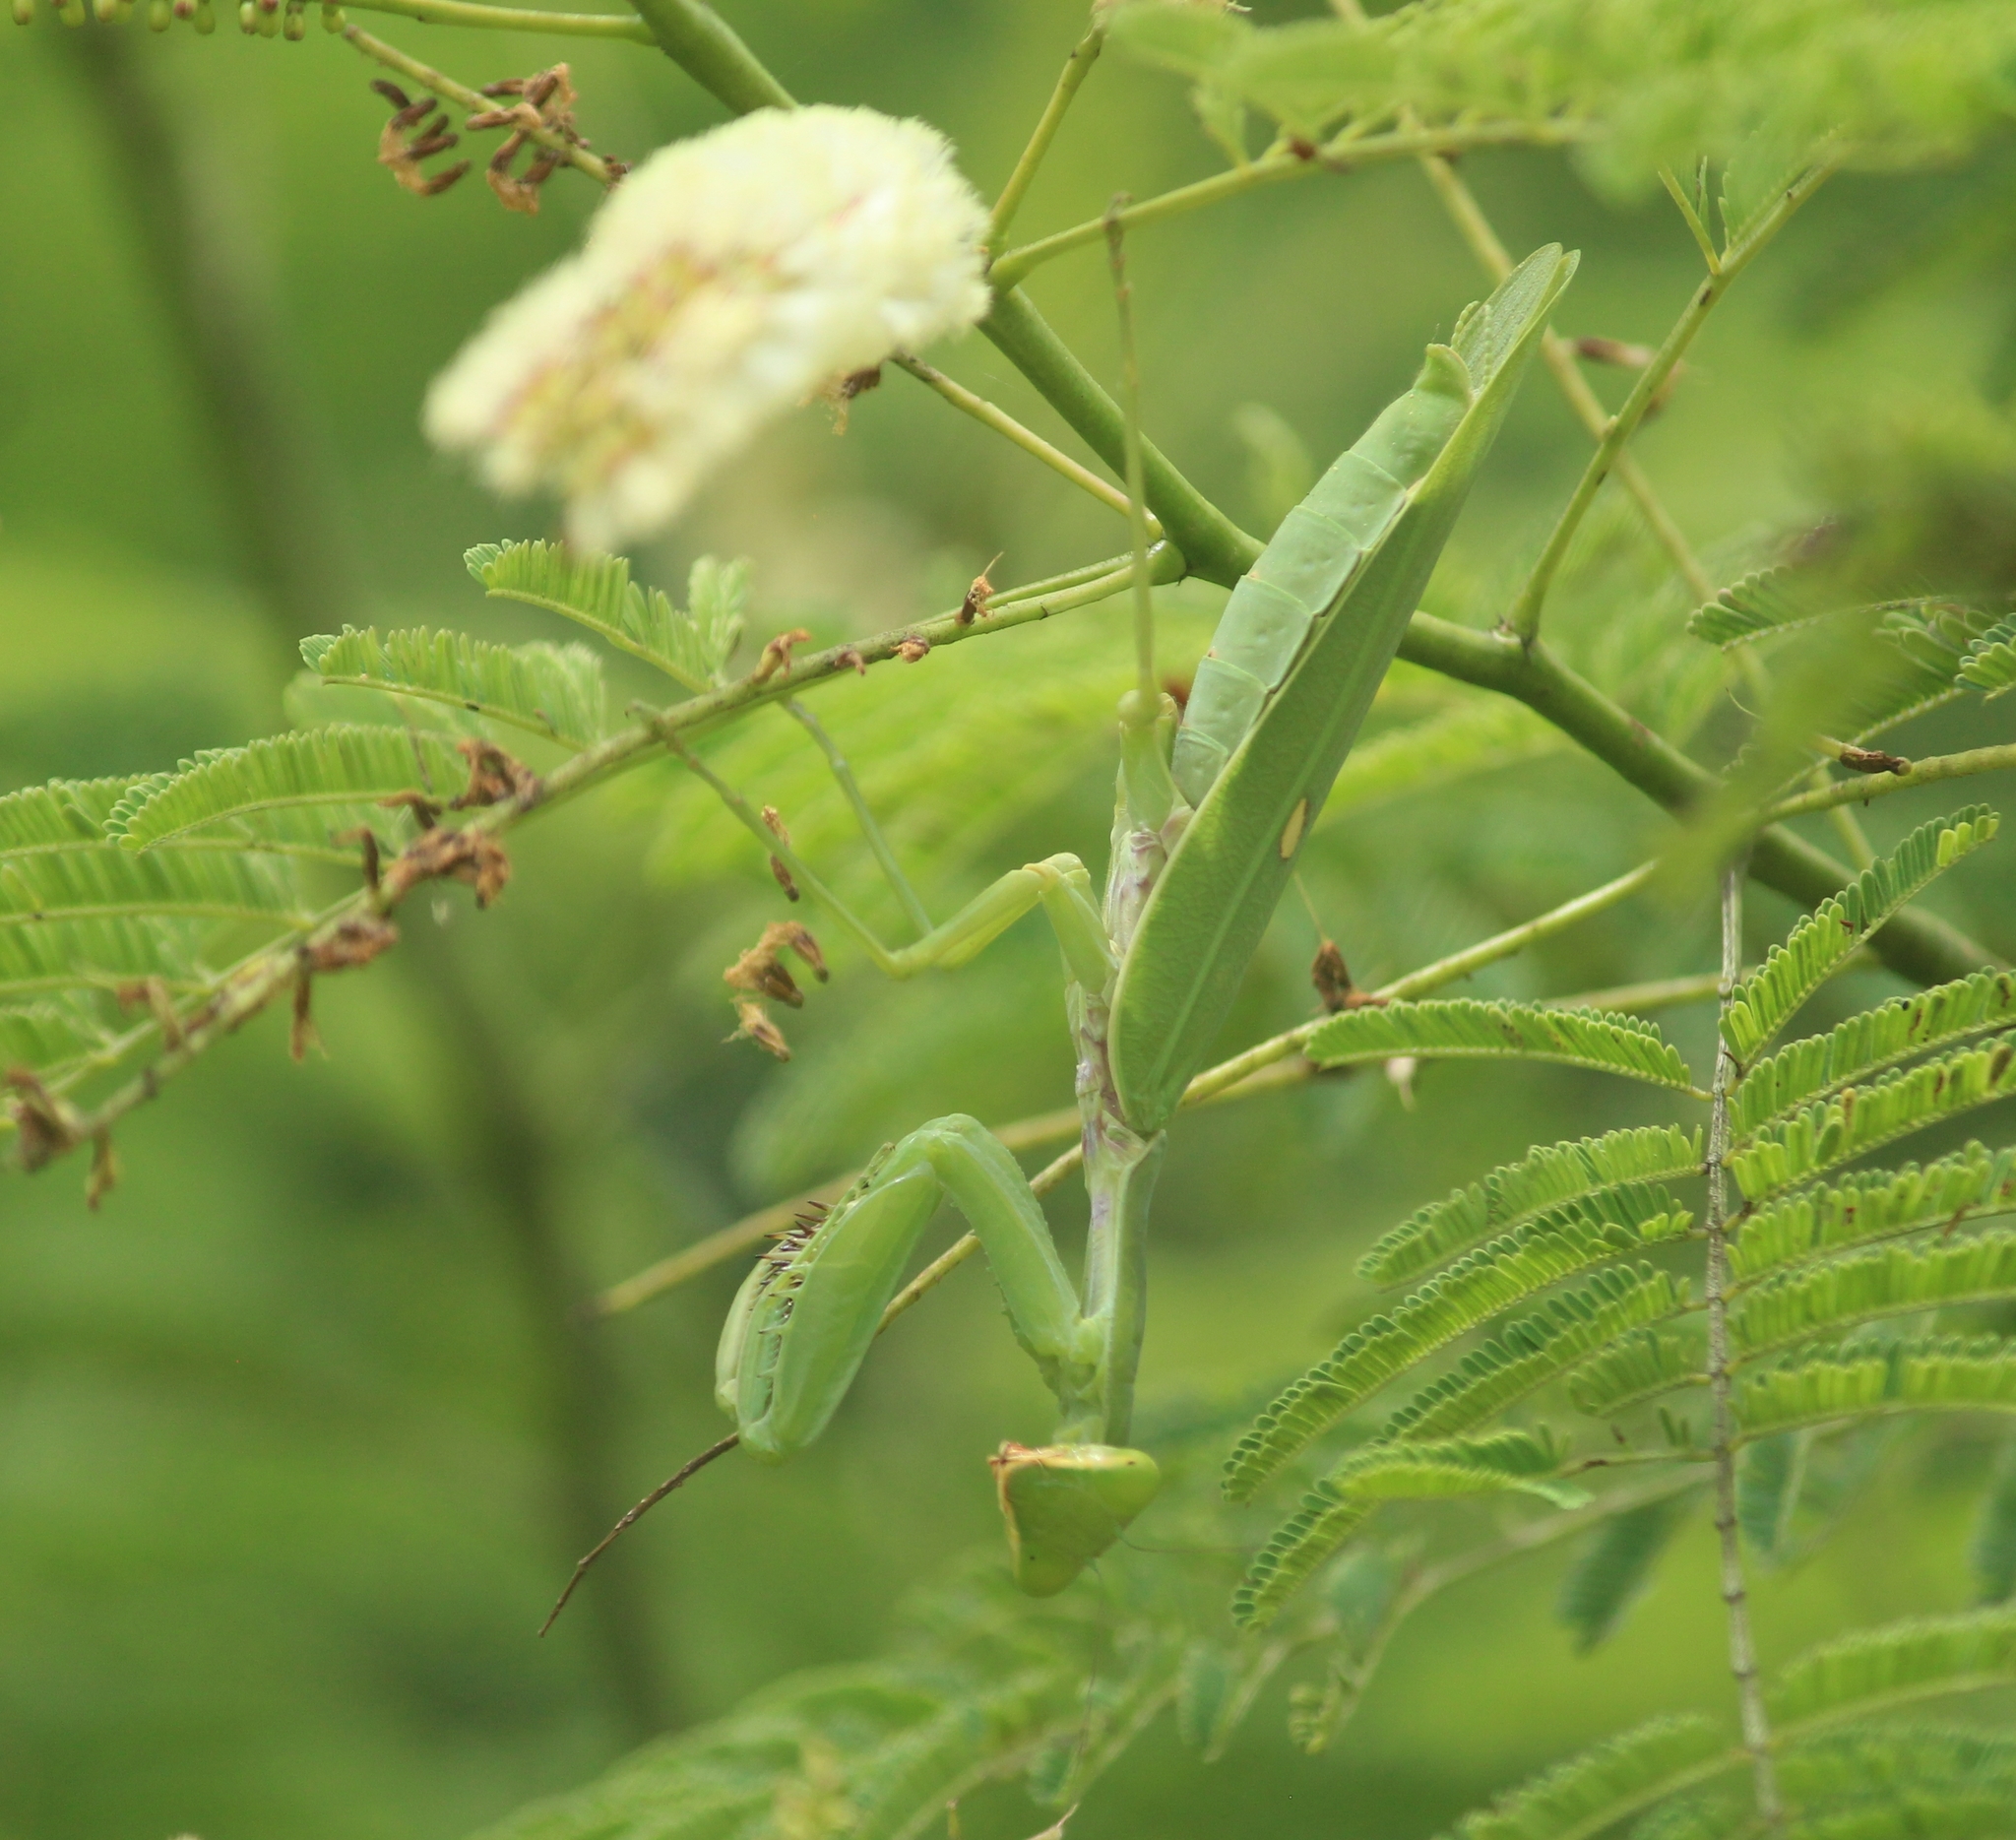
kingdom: Animalia
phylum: Arthropoda
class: Insecta
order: Mantodea
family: Mantidae
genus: Hierodula
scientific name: Hierodula tenuidentata
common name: Giant asian mantis
